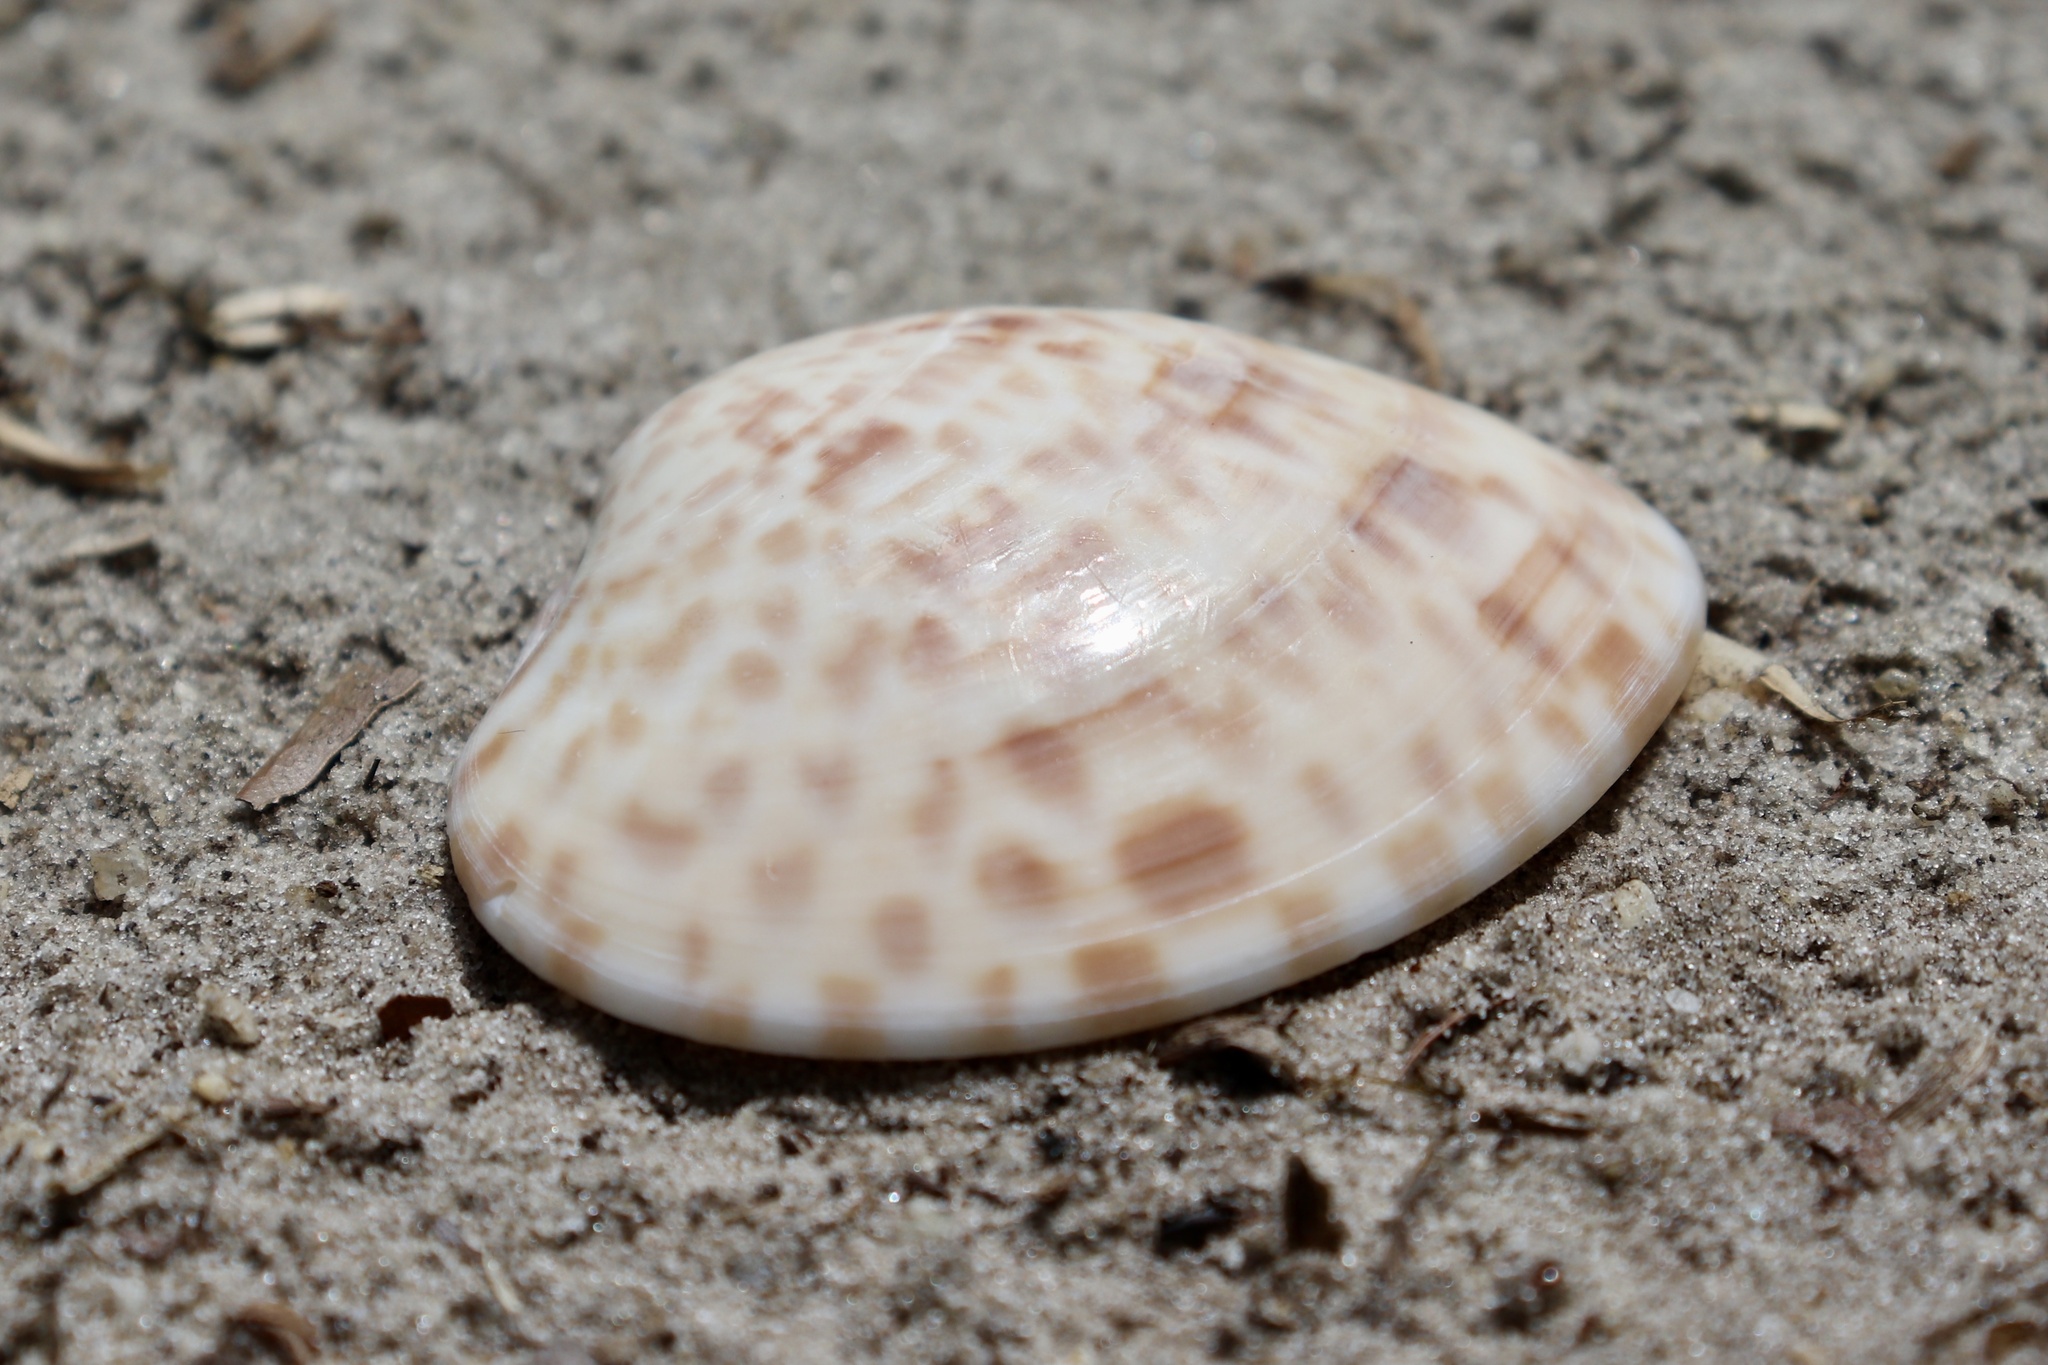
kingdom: Animalia
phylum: Mollusca
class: Bivalvia
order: Venerida
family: Veneridae
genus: Megapitaria
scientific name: Megapitaria maculata
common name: Calico clam
